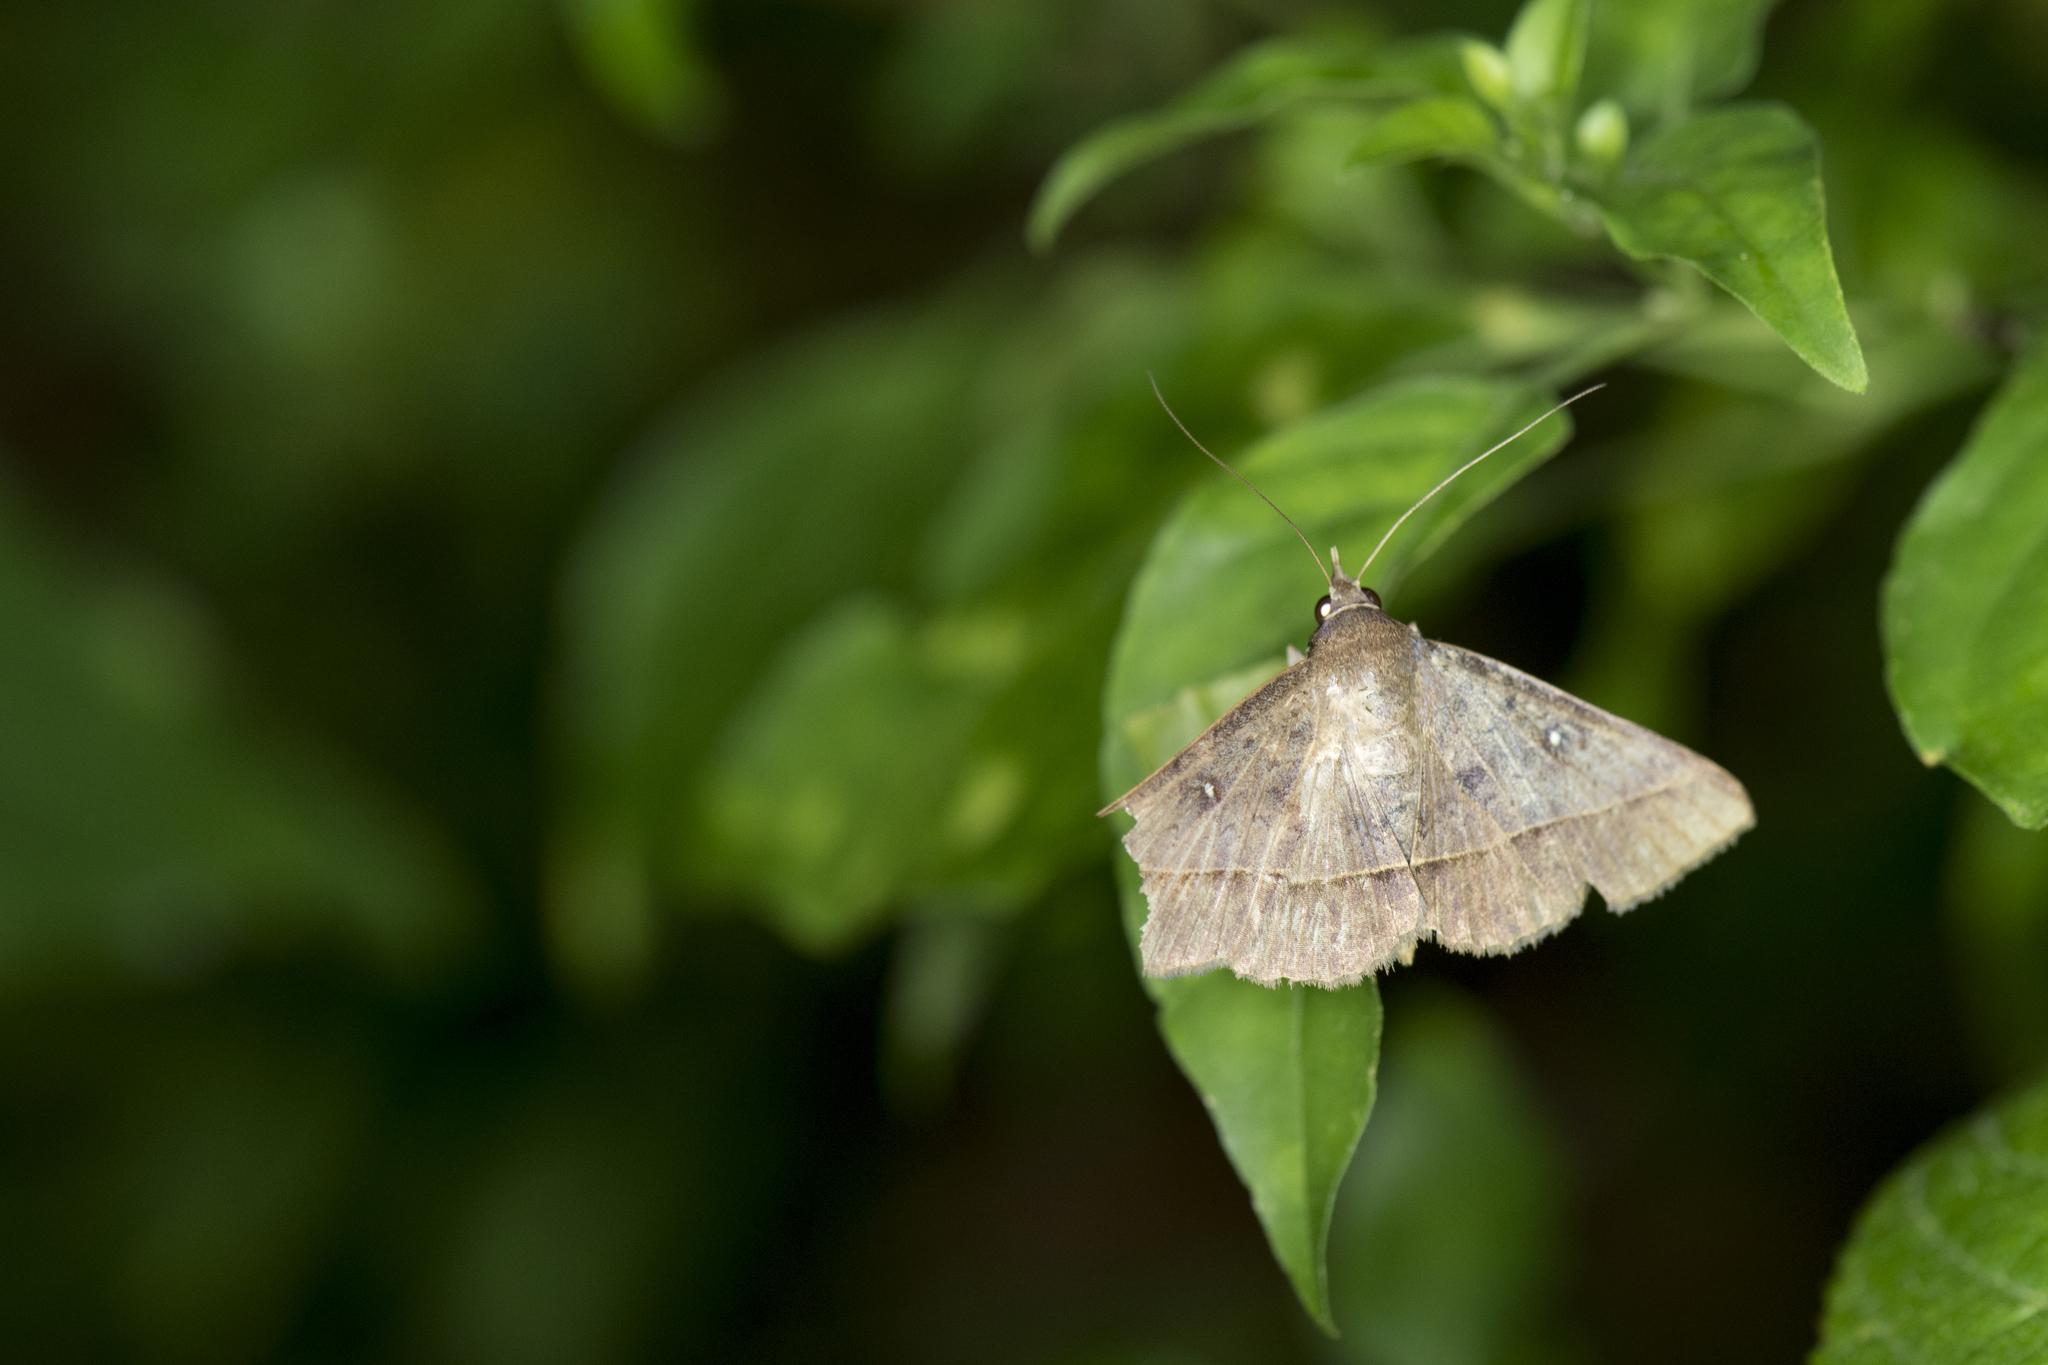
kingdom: Animalia
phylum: Arthropoda
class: Insecta
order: Lepidoptera
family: Erebidae
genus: Hypospila
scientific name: Hypospila bolinoides
